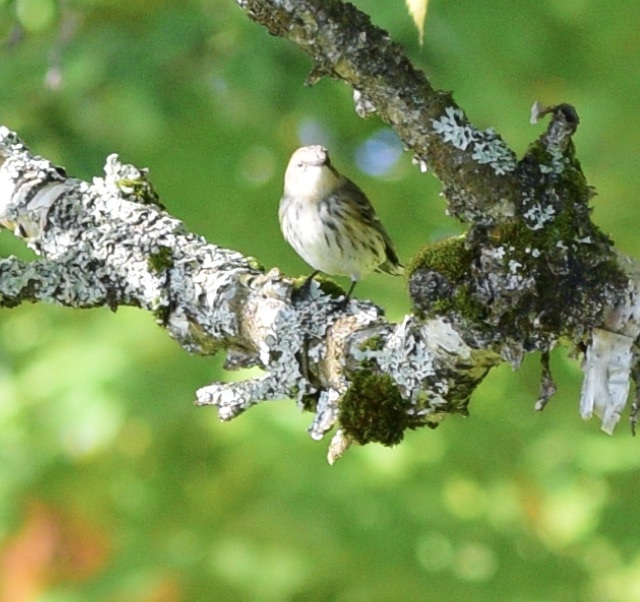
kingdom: Animalia
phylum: Chordata
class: Aves
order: Passeriformes
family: Parulidae
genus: Setophaga
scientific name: Setophaga coronata
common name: Myrtle warbler
